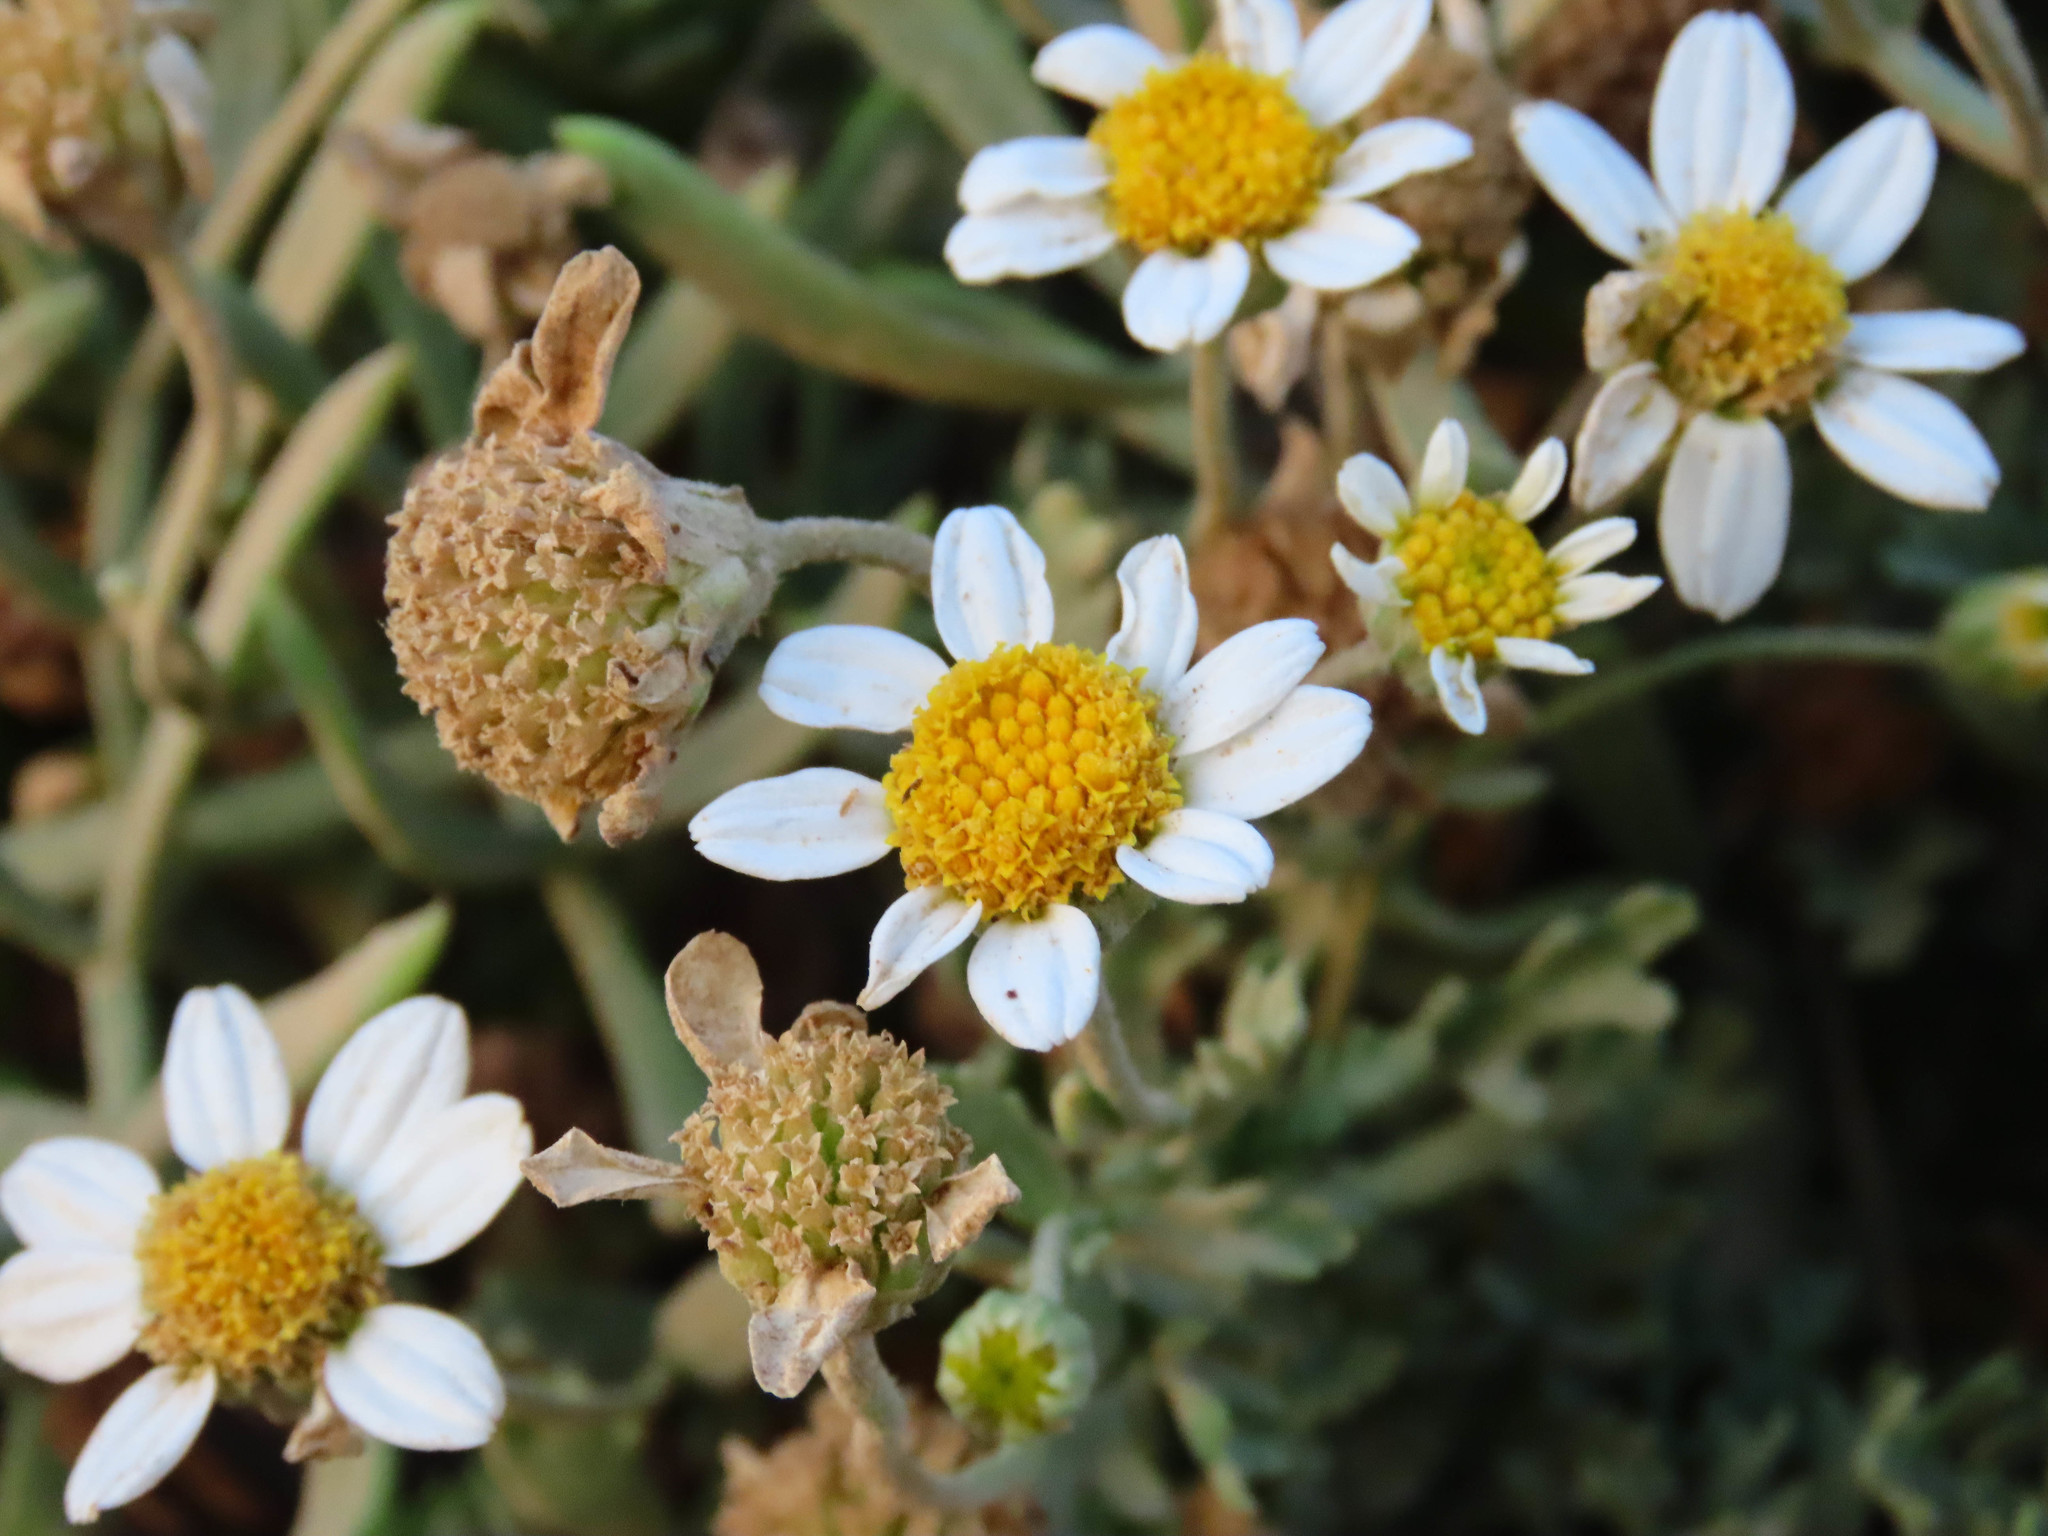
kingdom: Plantae
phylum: Tracheophyta
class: Magnoliopsida
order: Asterales
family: Asteraceae
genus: Anthemis
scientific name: Anthemis maritima
